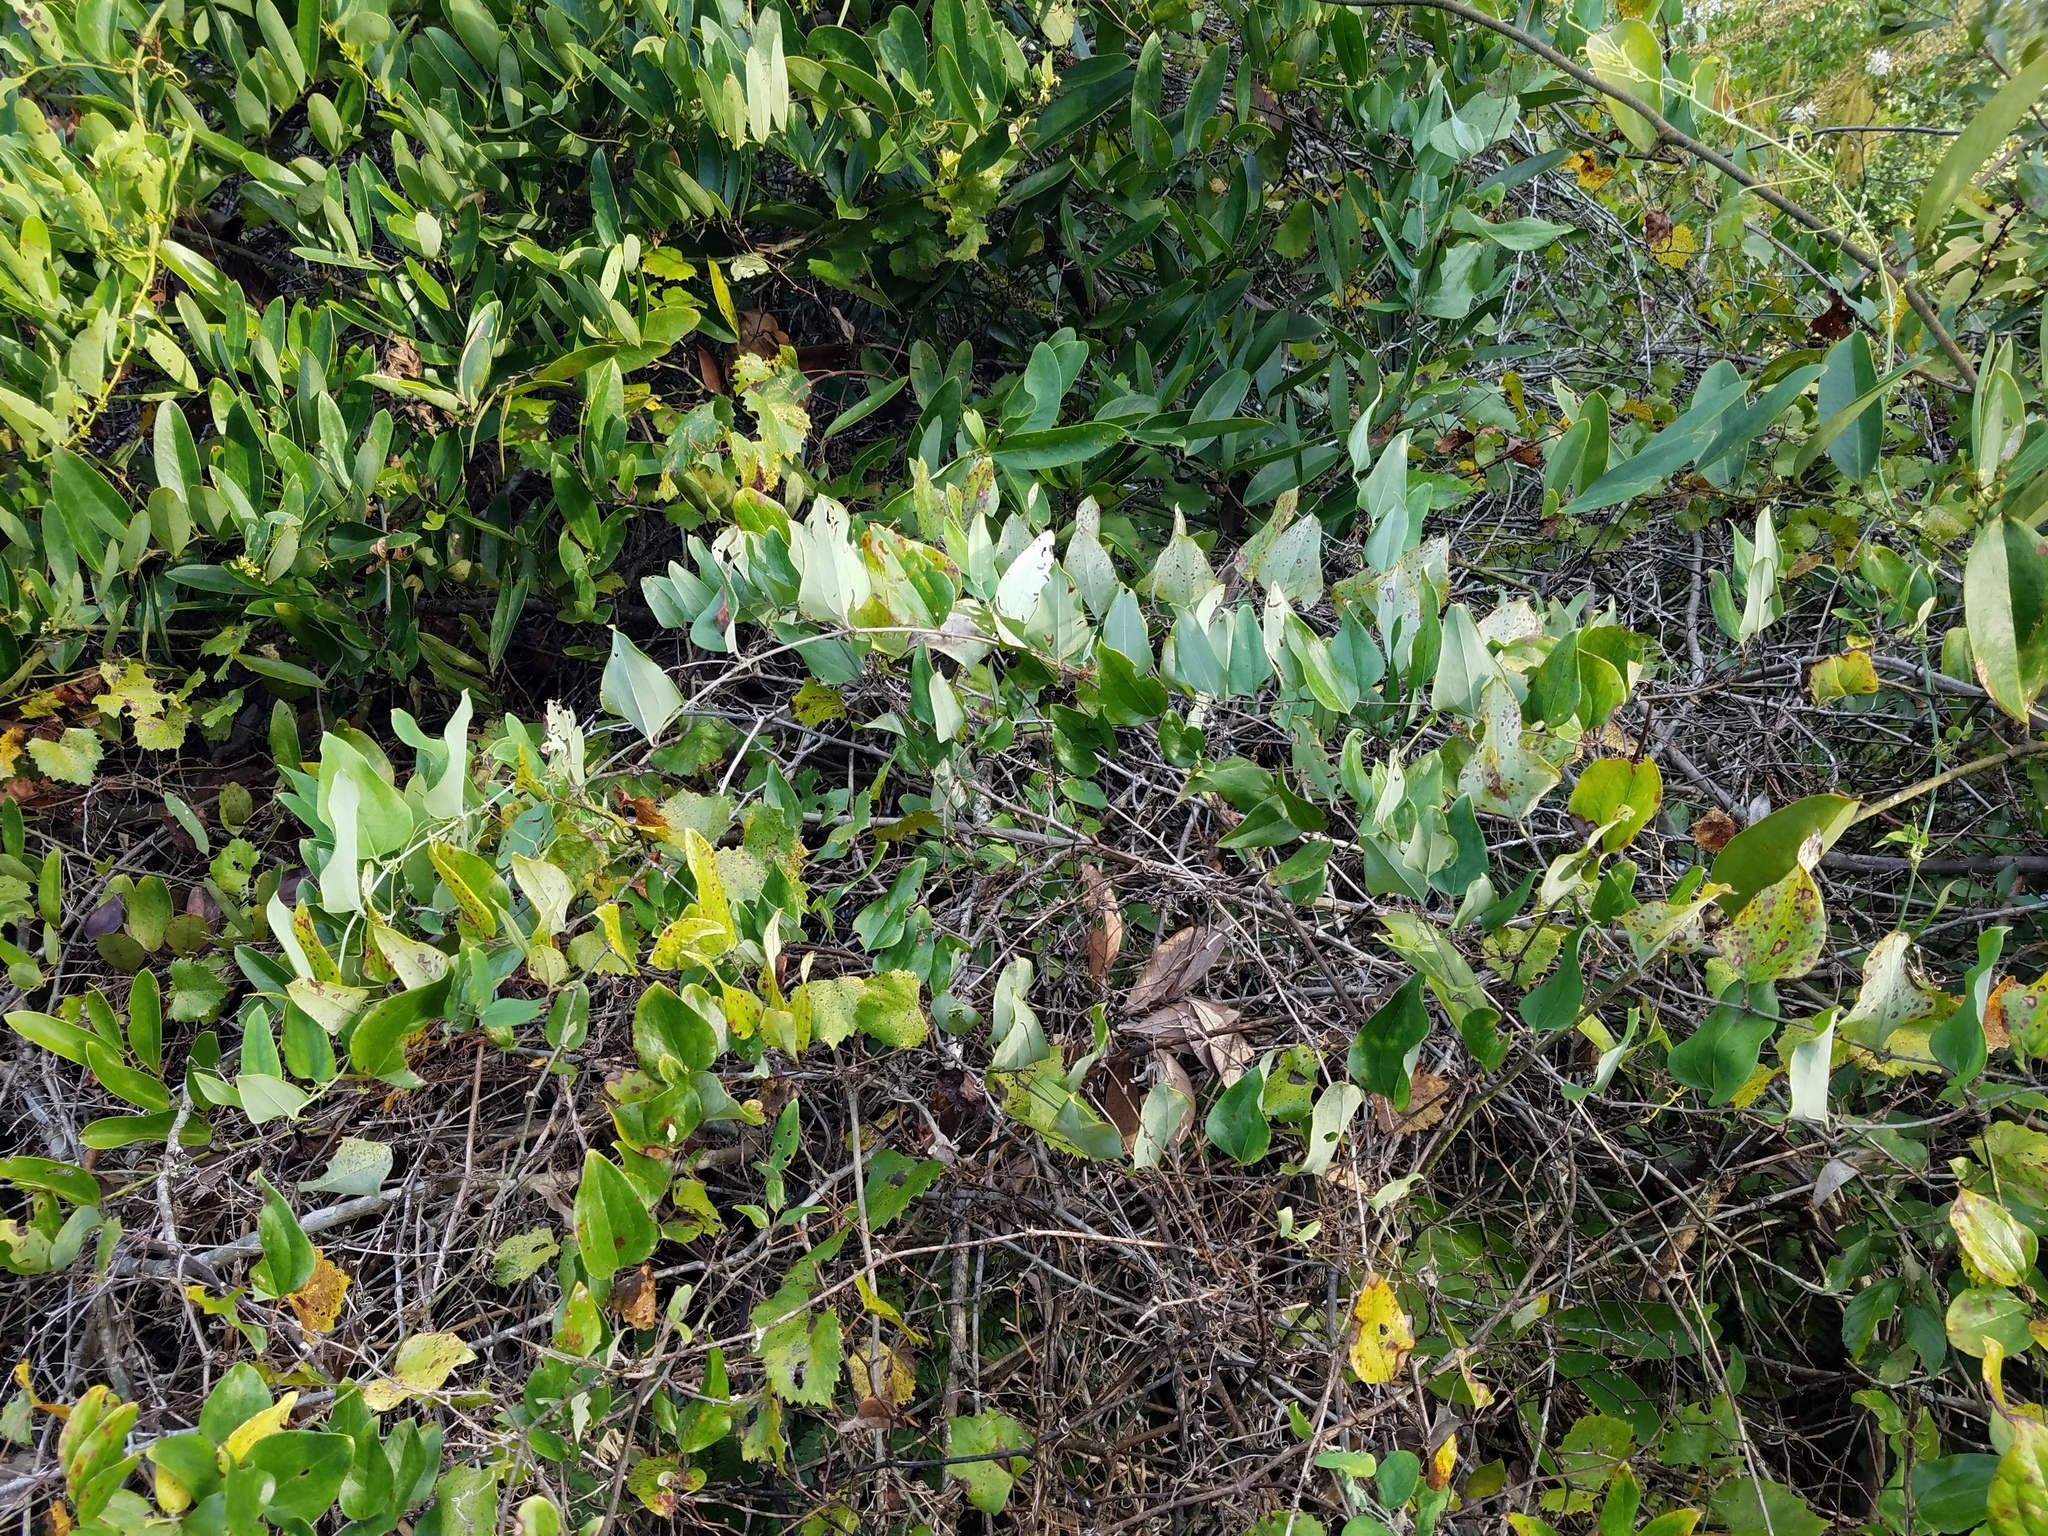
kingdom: Plantae
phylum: Tracheophyta
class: Liliopsida
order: Liliales
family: Smilacaceae
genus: Smilax
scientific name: Smilax glauca
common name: Cat greenbrier
